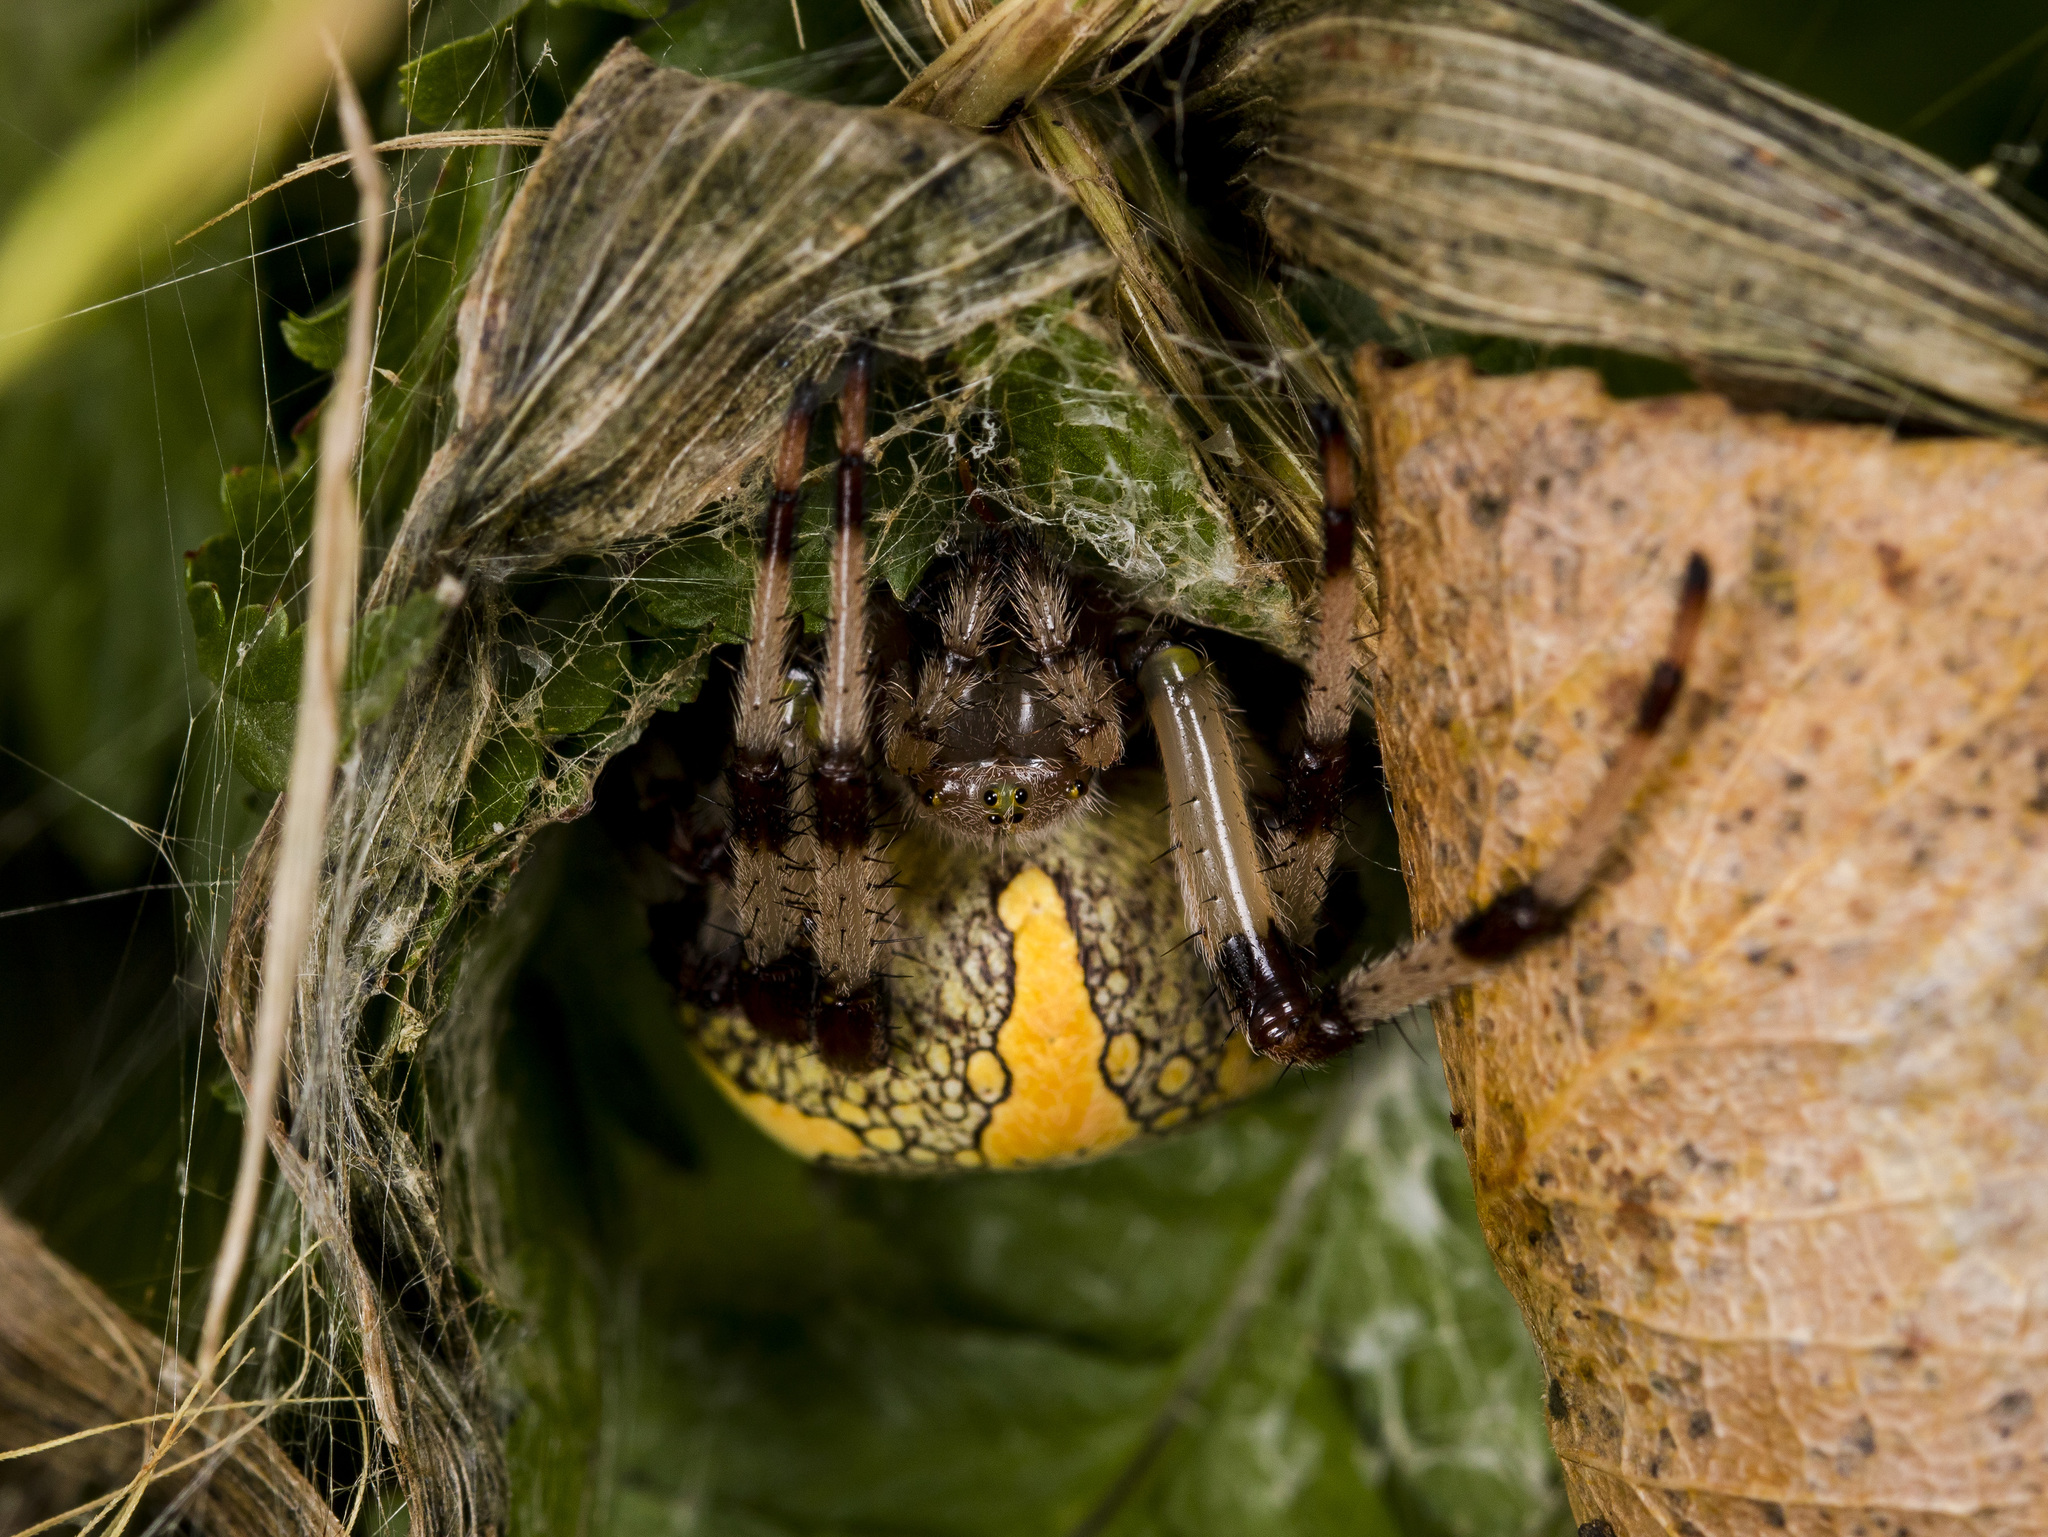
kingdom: Animalia
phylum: Arthropoda
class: Arachnida
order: Araneae
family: Araneidae
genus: Araneus
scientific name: Araneus marmoreus
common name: Marbled orbweaver
